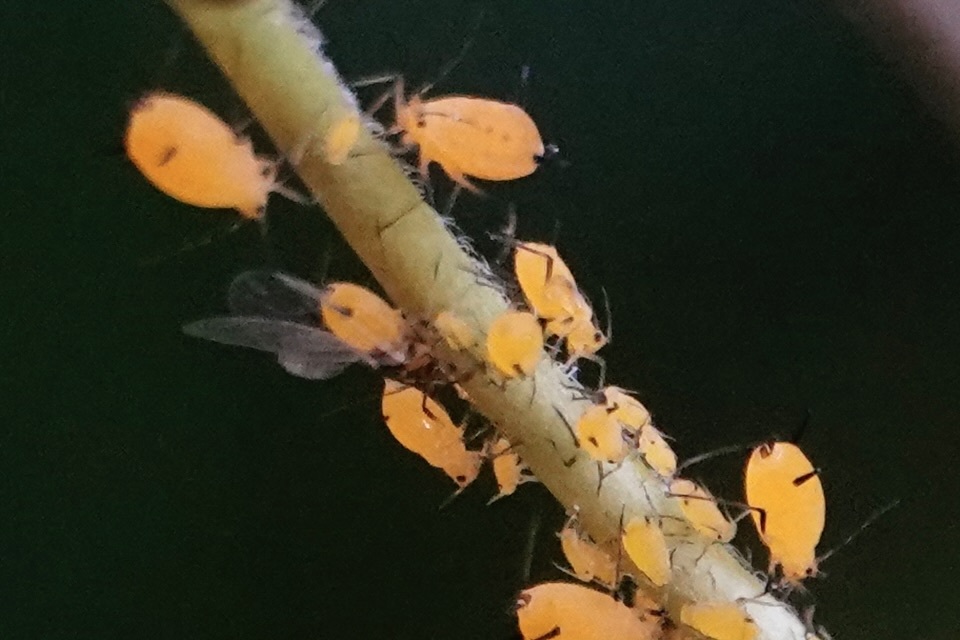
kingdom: Animalia
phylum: Arthropoda
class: Insecta
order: Hemiptera
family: Aphididae
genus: Aphis
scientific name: Aphis nerii
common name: Oleander aphid
